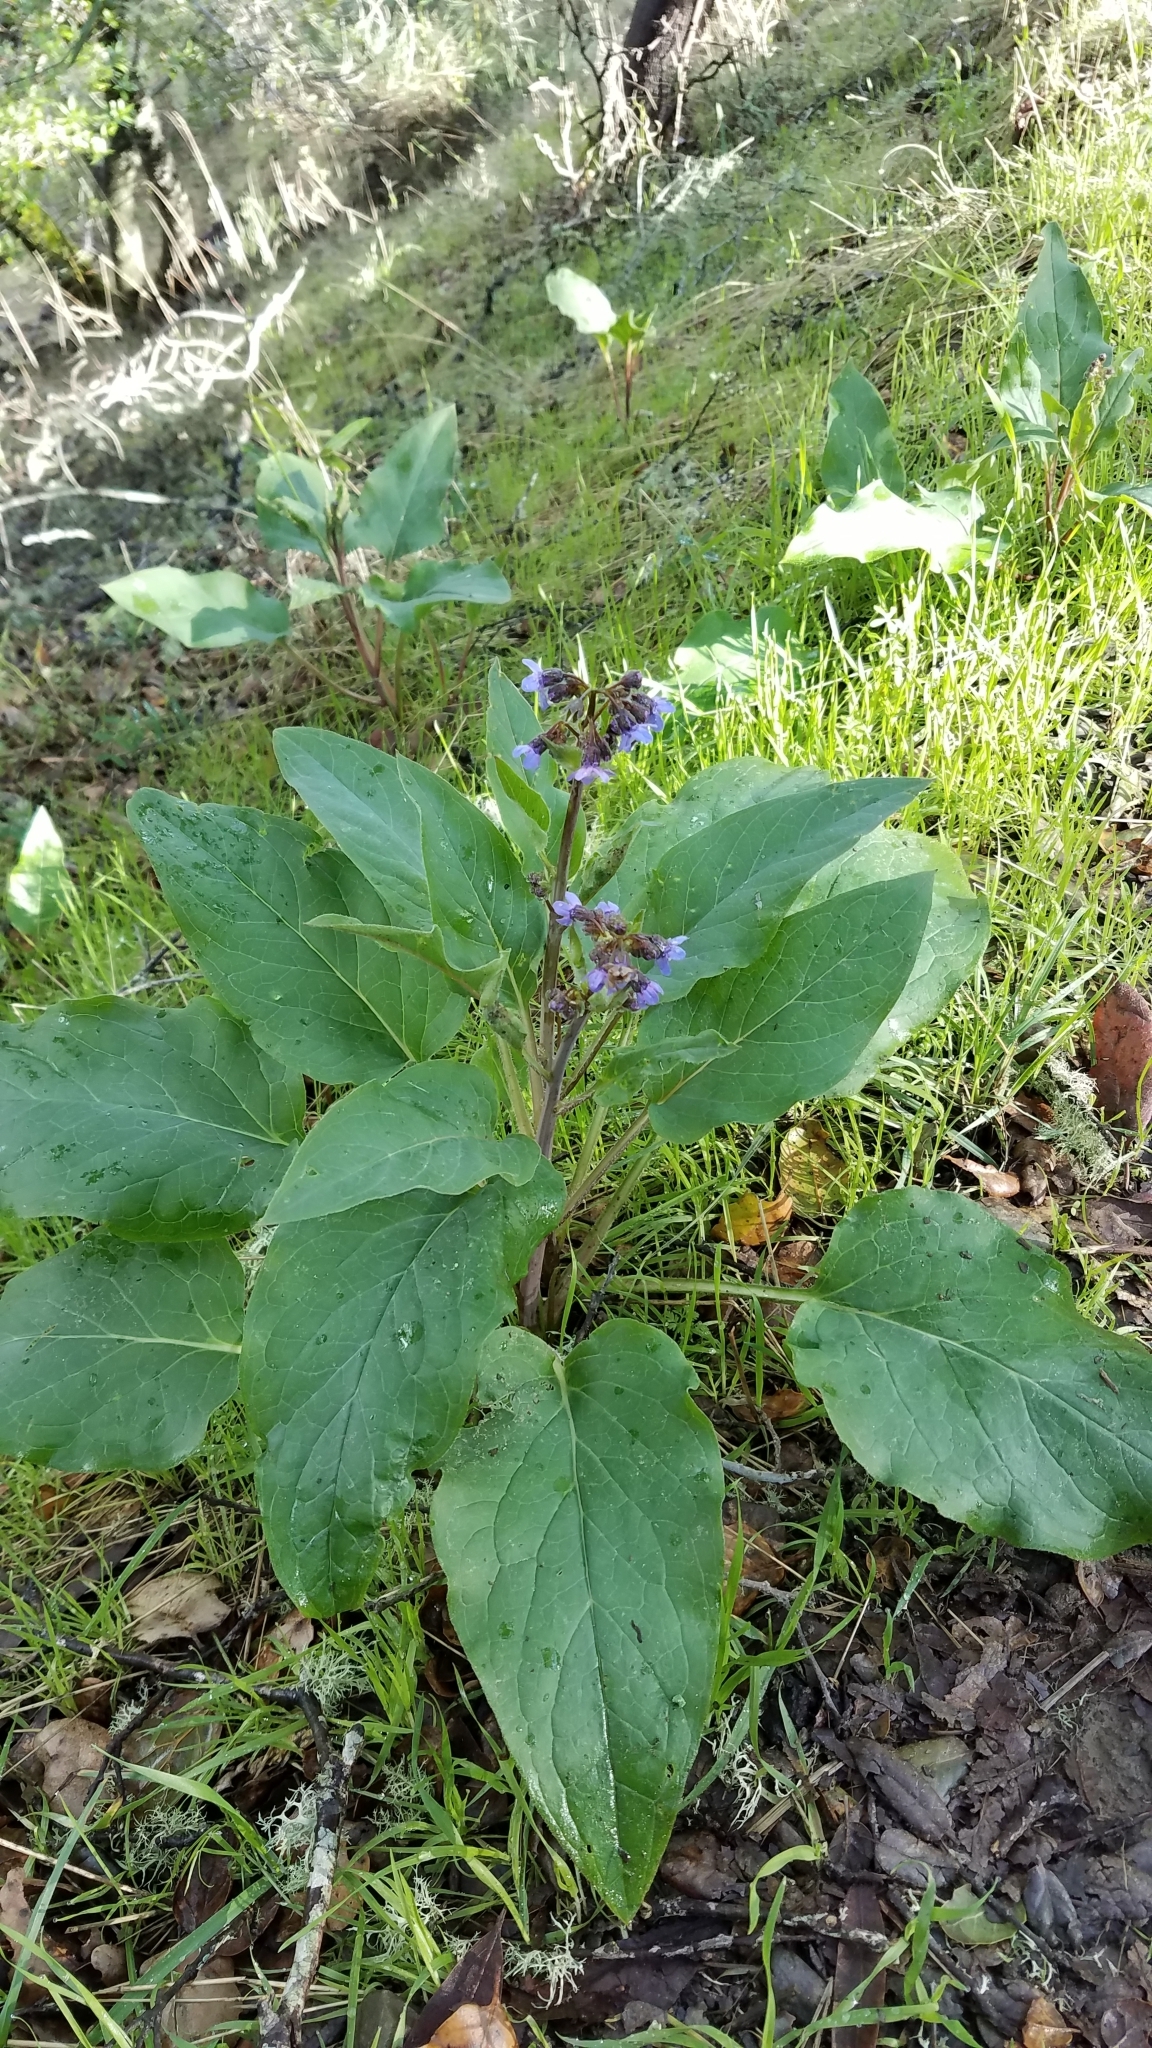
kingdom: Plantae
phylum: Tracheophyta
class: Magnoliopsida
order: Boraginales
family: Boraginaceae
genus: Adelinia
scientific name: Adelinia grande
